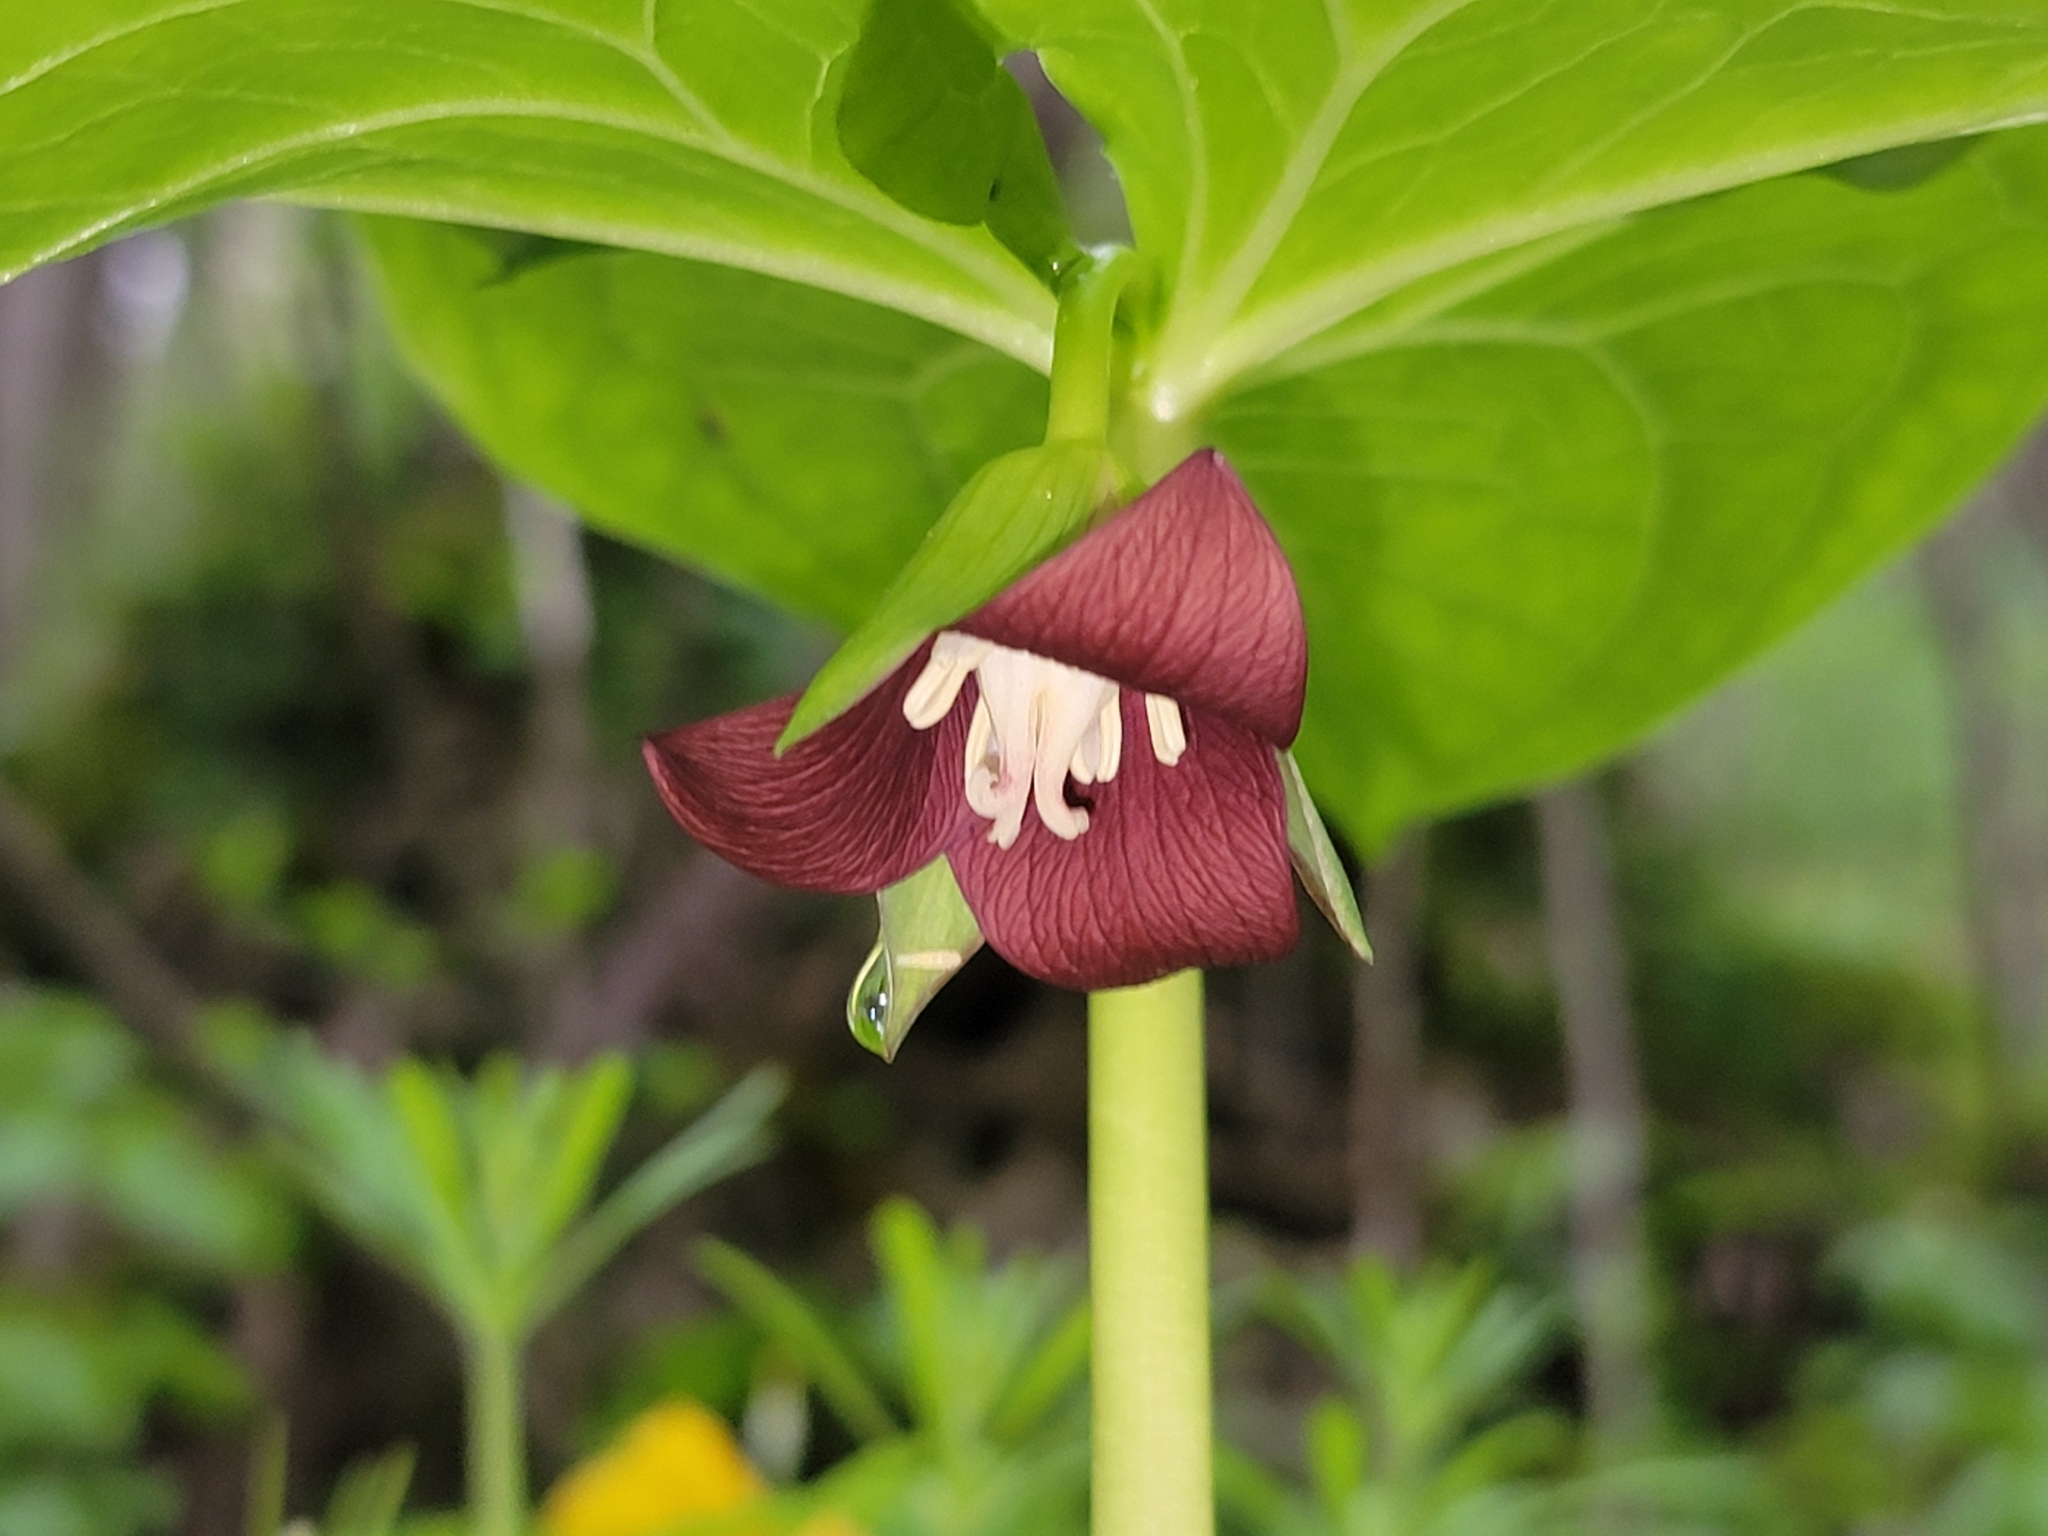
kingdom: Plantae
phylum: Tracheophyta
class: Liliopsida
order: Liliales
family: Melanthiaceae
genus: Trillium
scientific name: Trillium flexipes
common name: Drooping trillium
